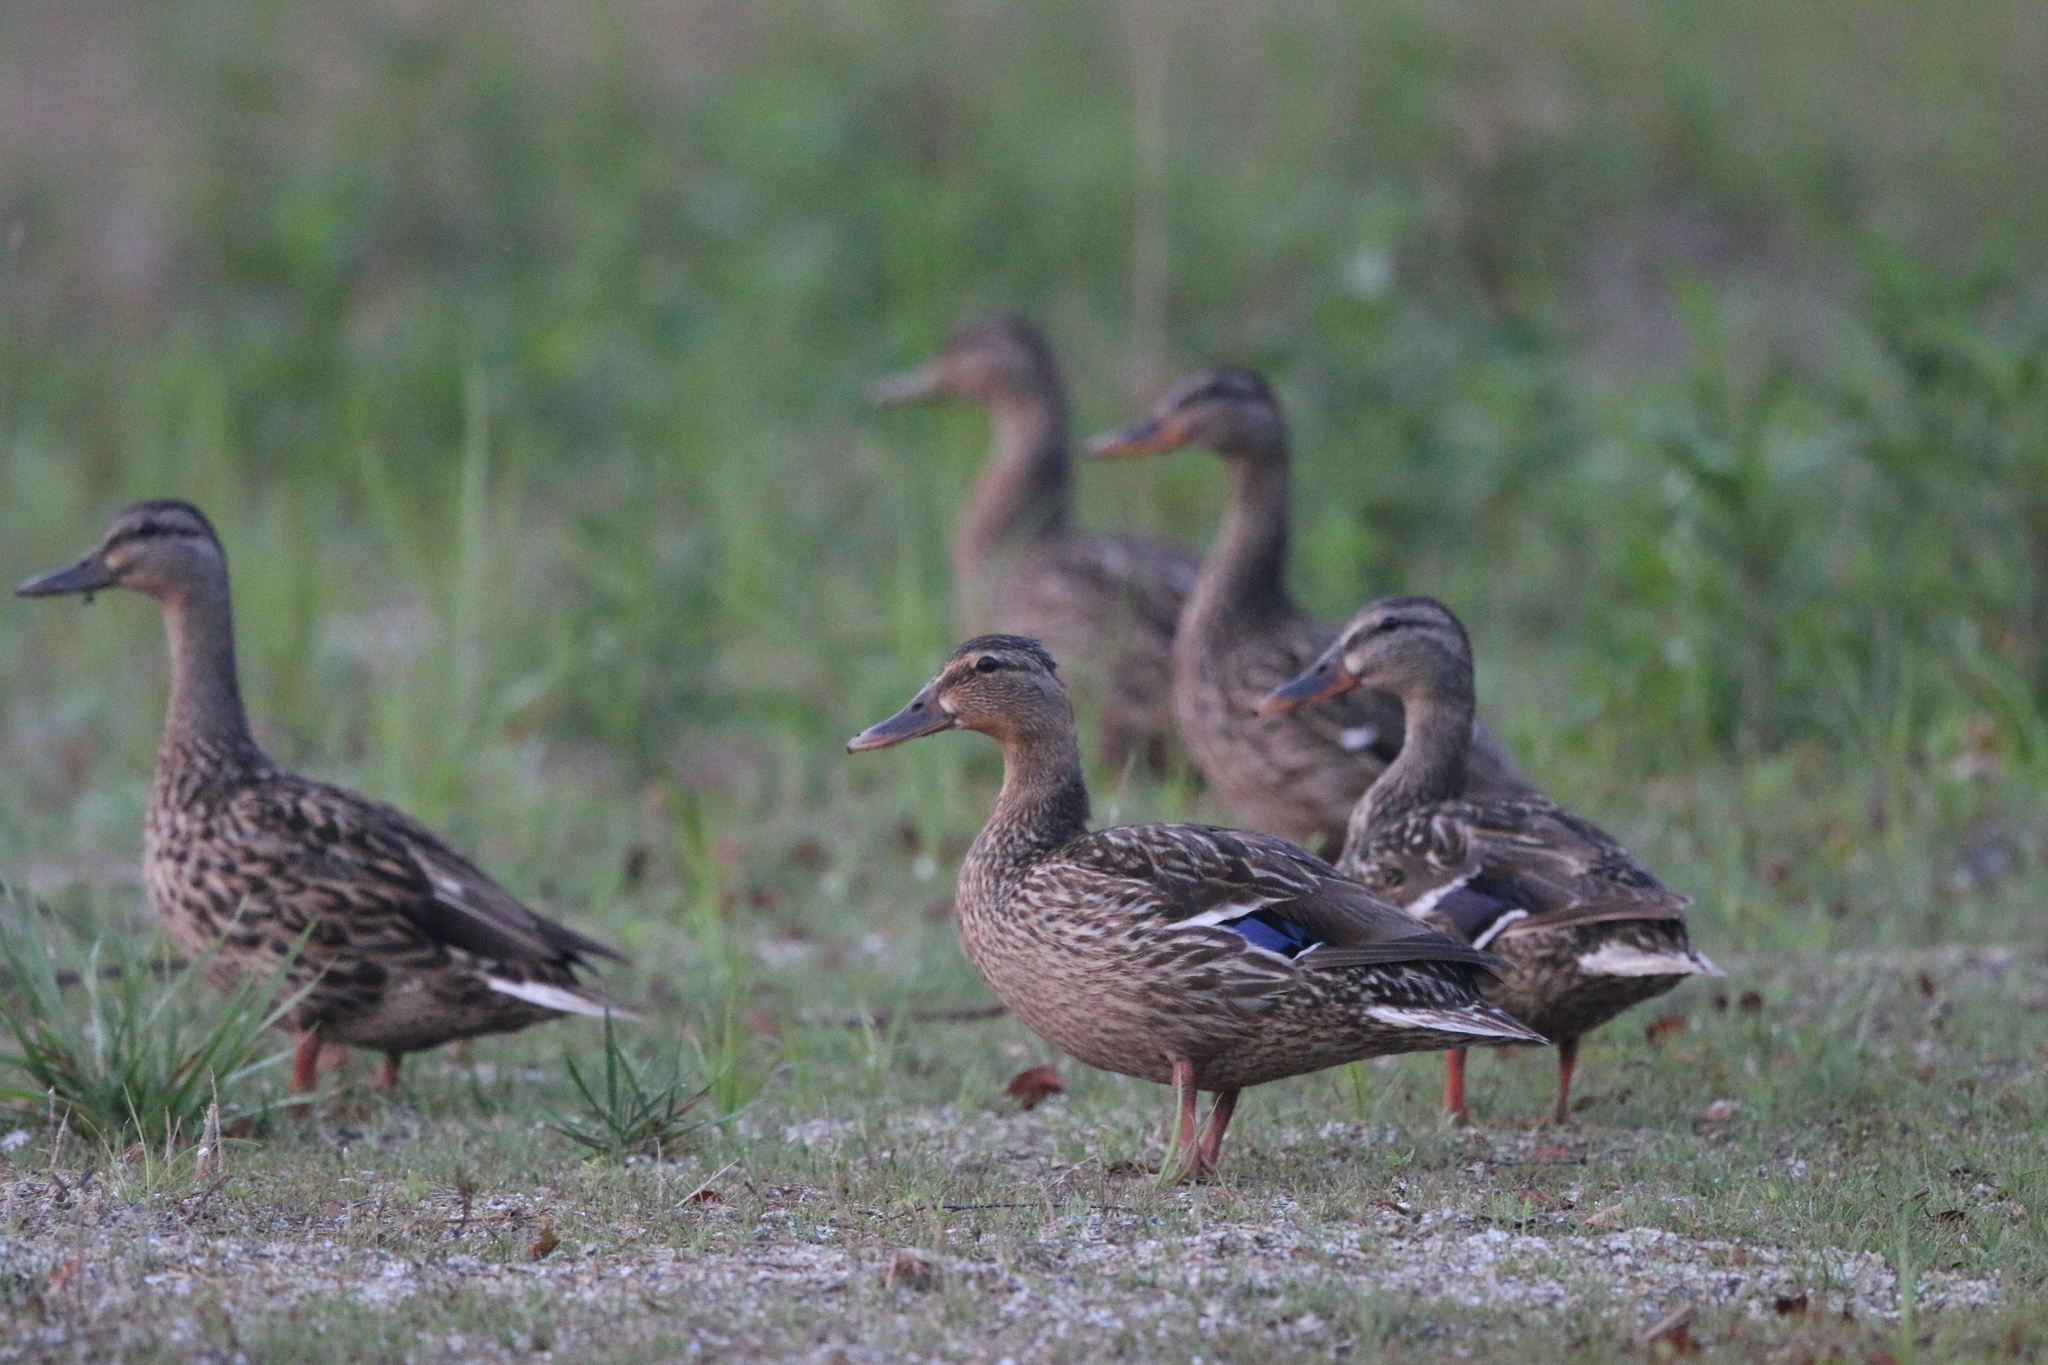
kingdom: Animalia
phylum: Chordata
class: Aves
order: Anseriformes
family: Anatidae
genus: Anas
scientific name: Anas platyrhynchos
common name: Mallard
